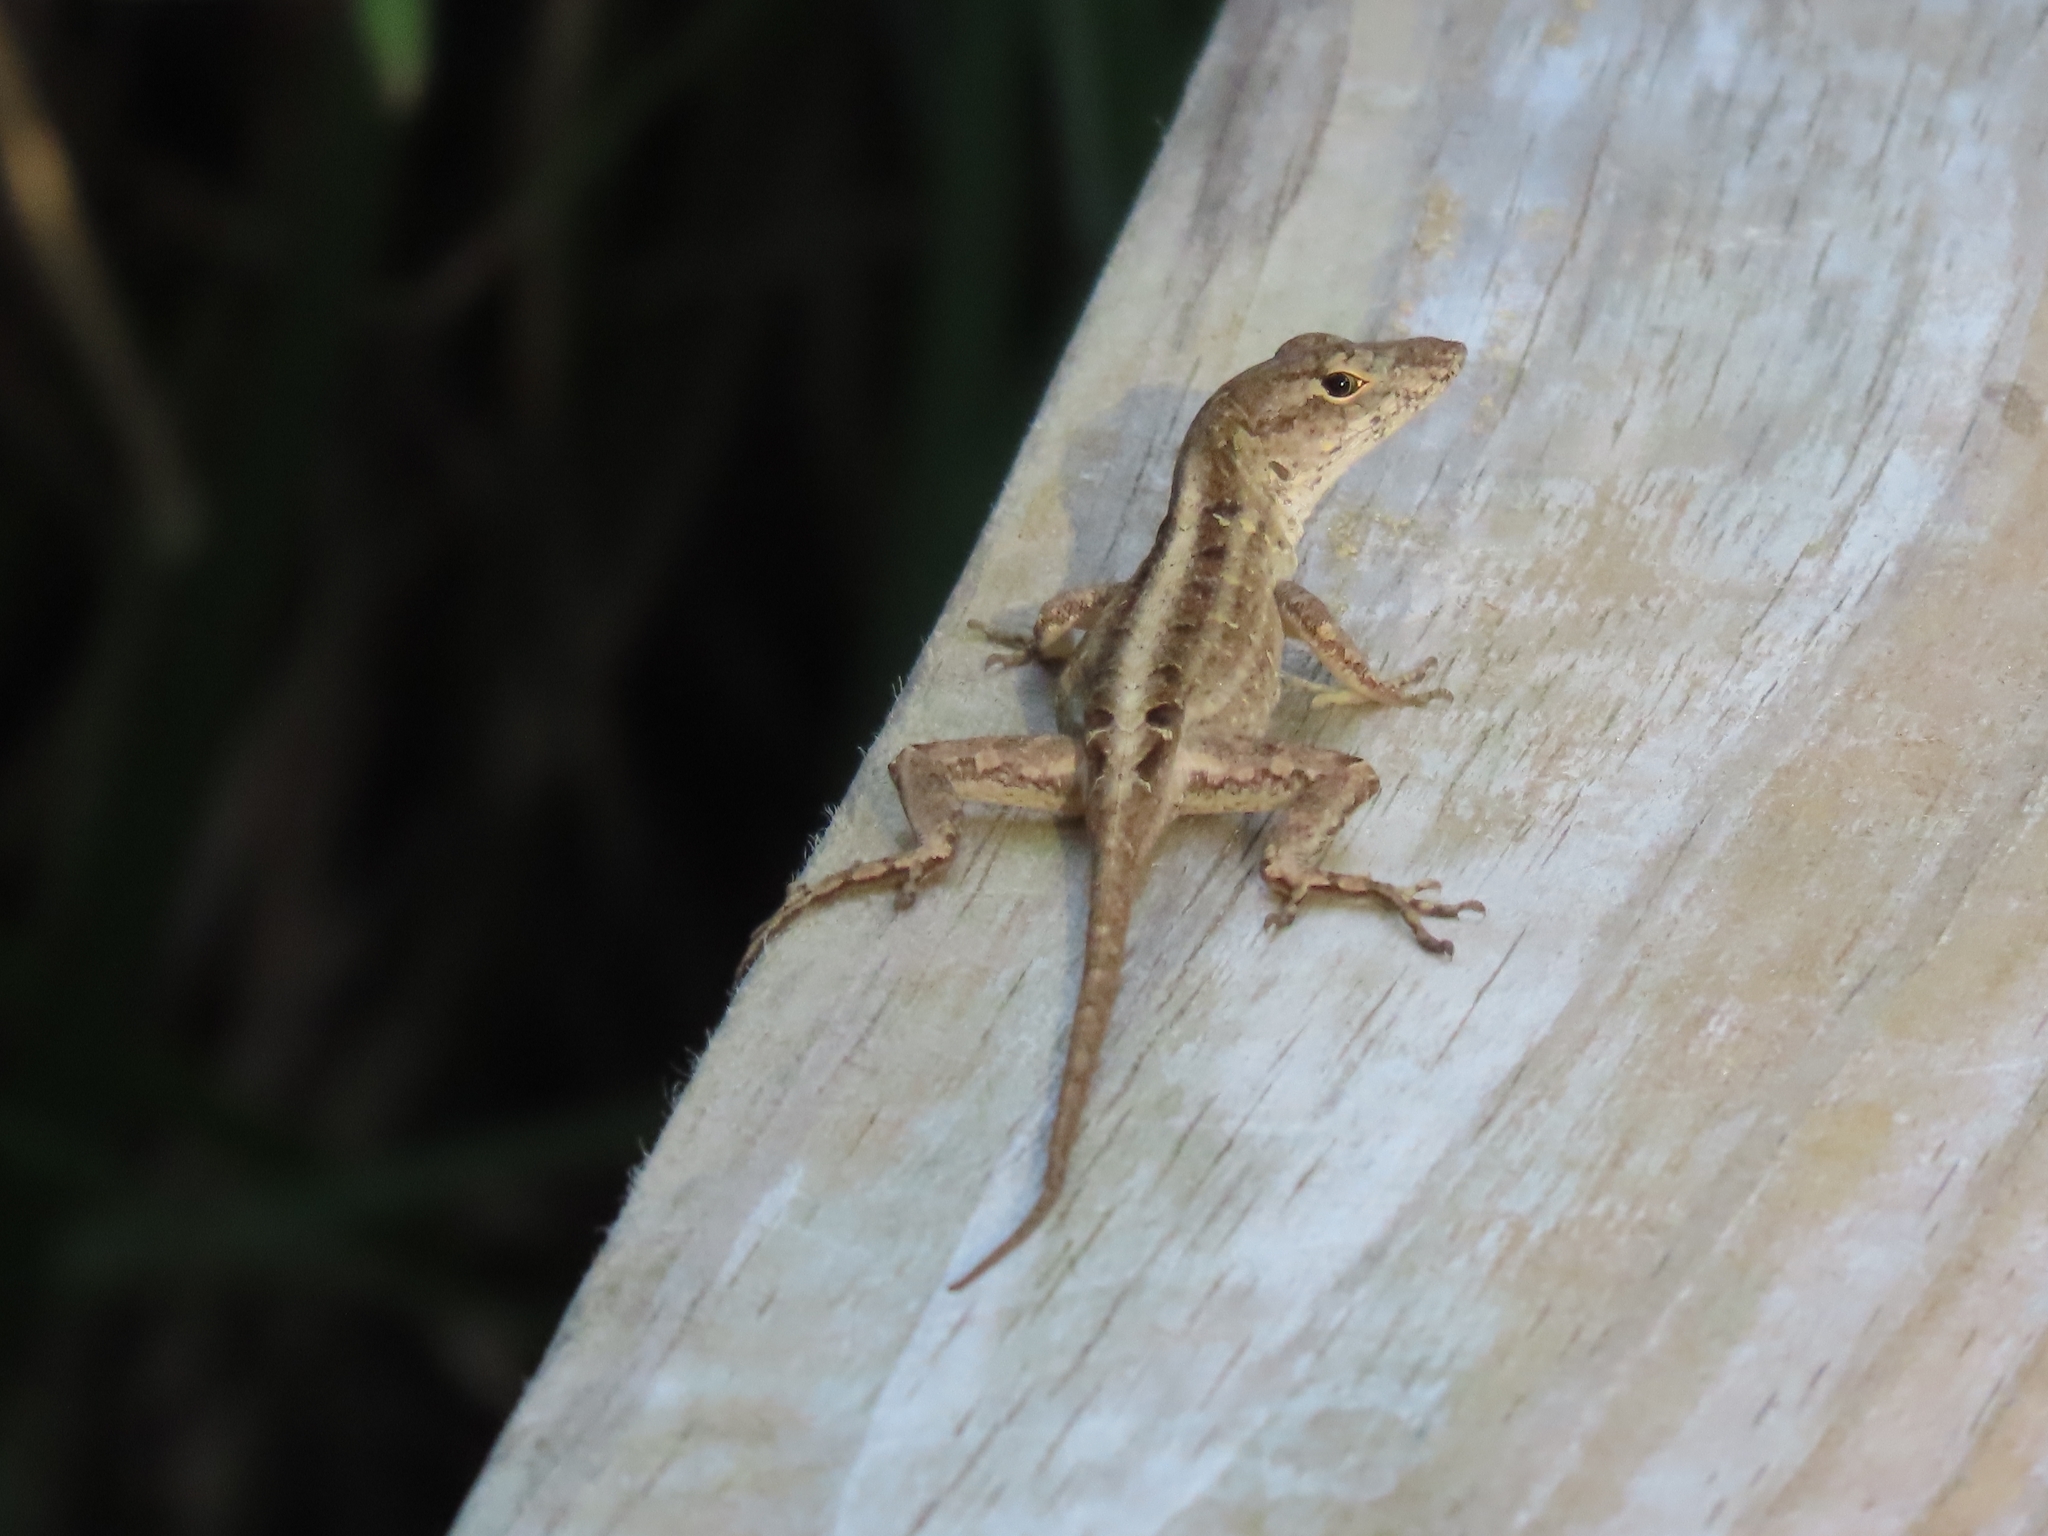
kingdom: Animalia
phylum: Chordata
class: Squamata
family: Dactyloidae
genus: Anolis
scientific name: Anolis sagrei
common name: Brown anole
